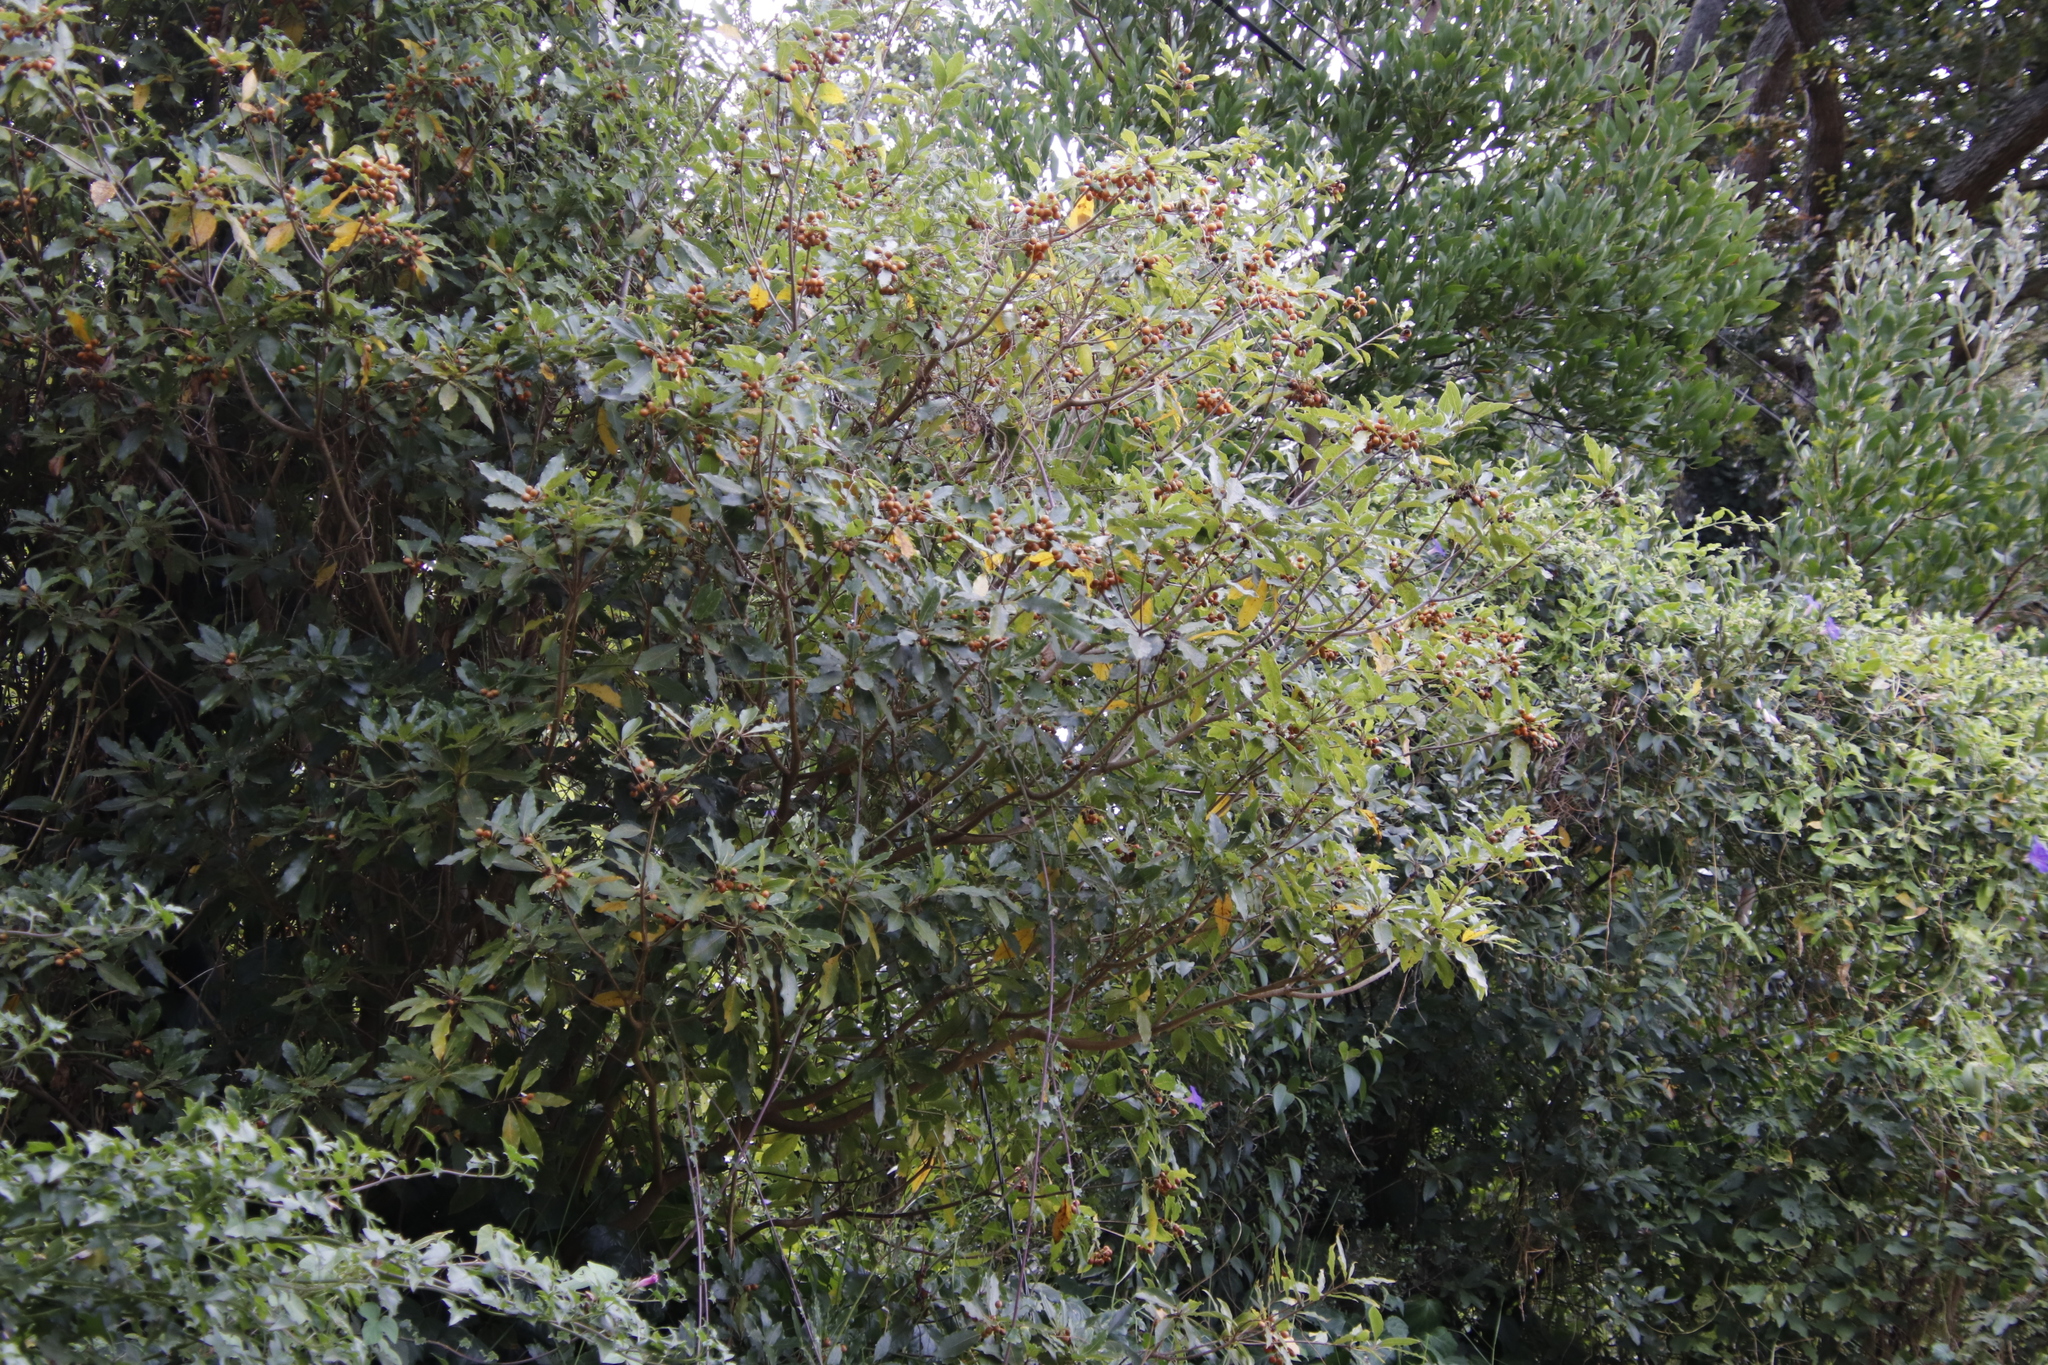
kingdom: Plantae
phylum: Tracheophyta
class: Magnoliopsida
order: Apiales
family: Pittosporaceae
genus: Pittosporum
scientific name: Pittosporum undulatum
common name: Australian cheesewood
